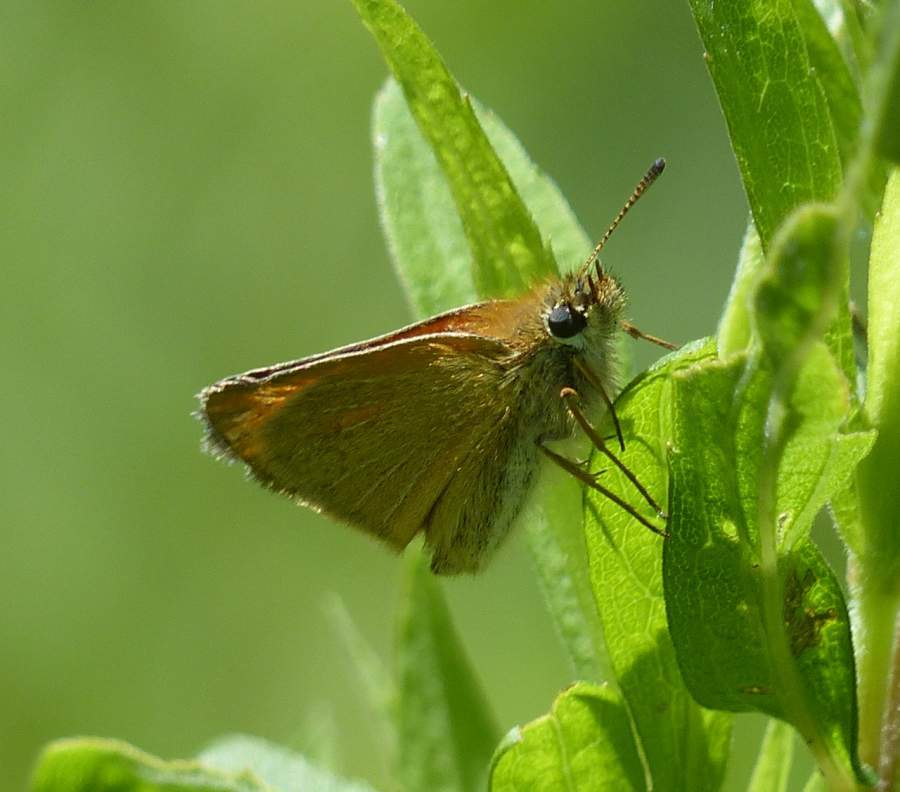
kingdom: Animalia
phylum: Arthropoda
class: Insecta
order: Lepidoptera
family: Hesperiidae
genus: Thymelicus
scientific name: Thymelicus lineola
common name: Essex skipper
